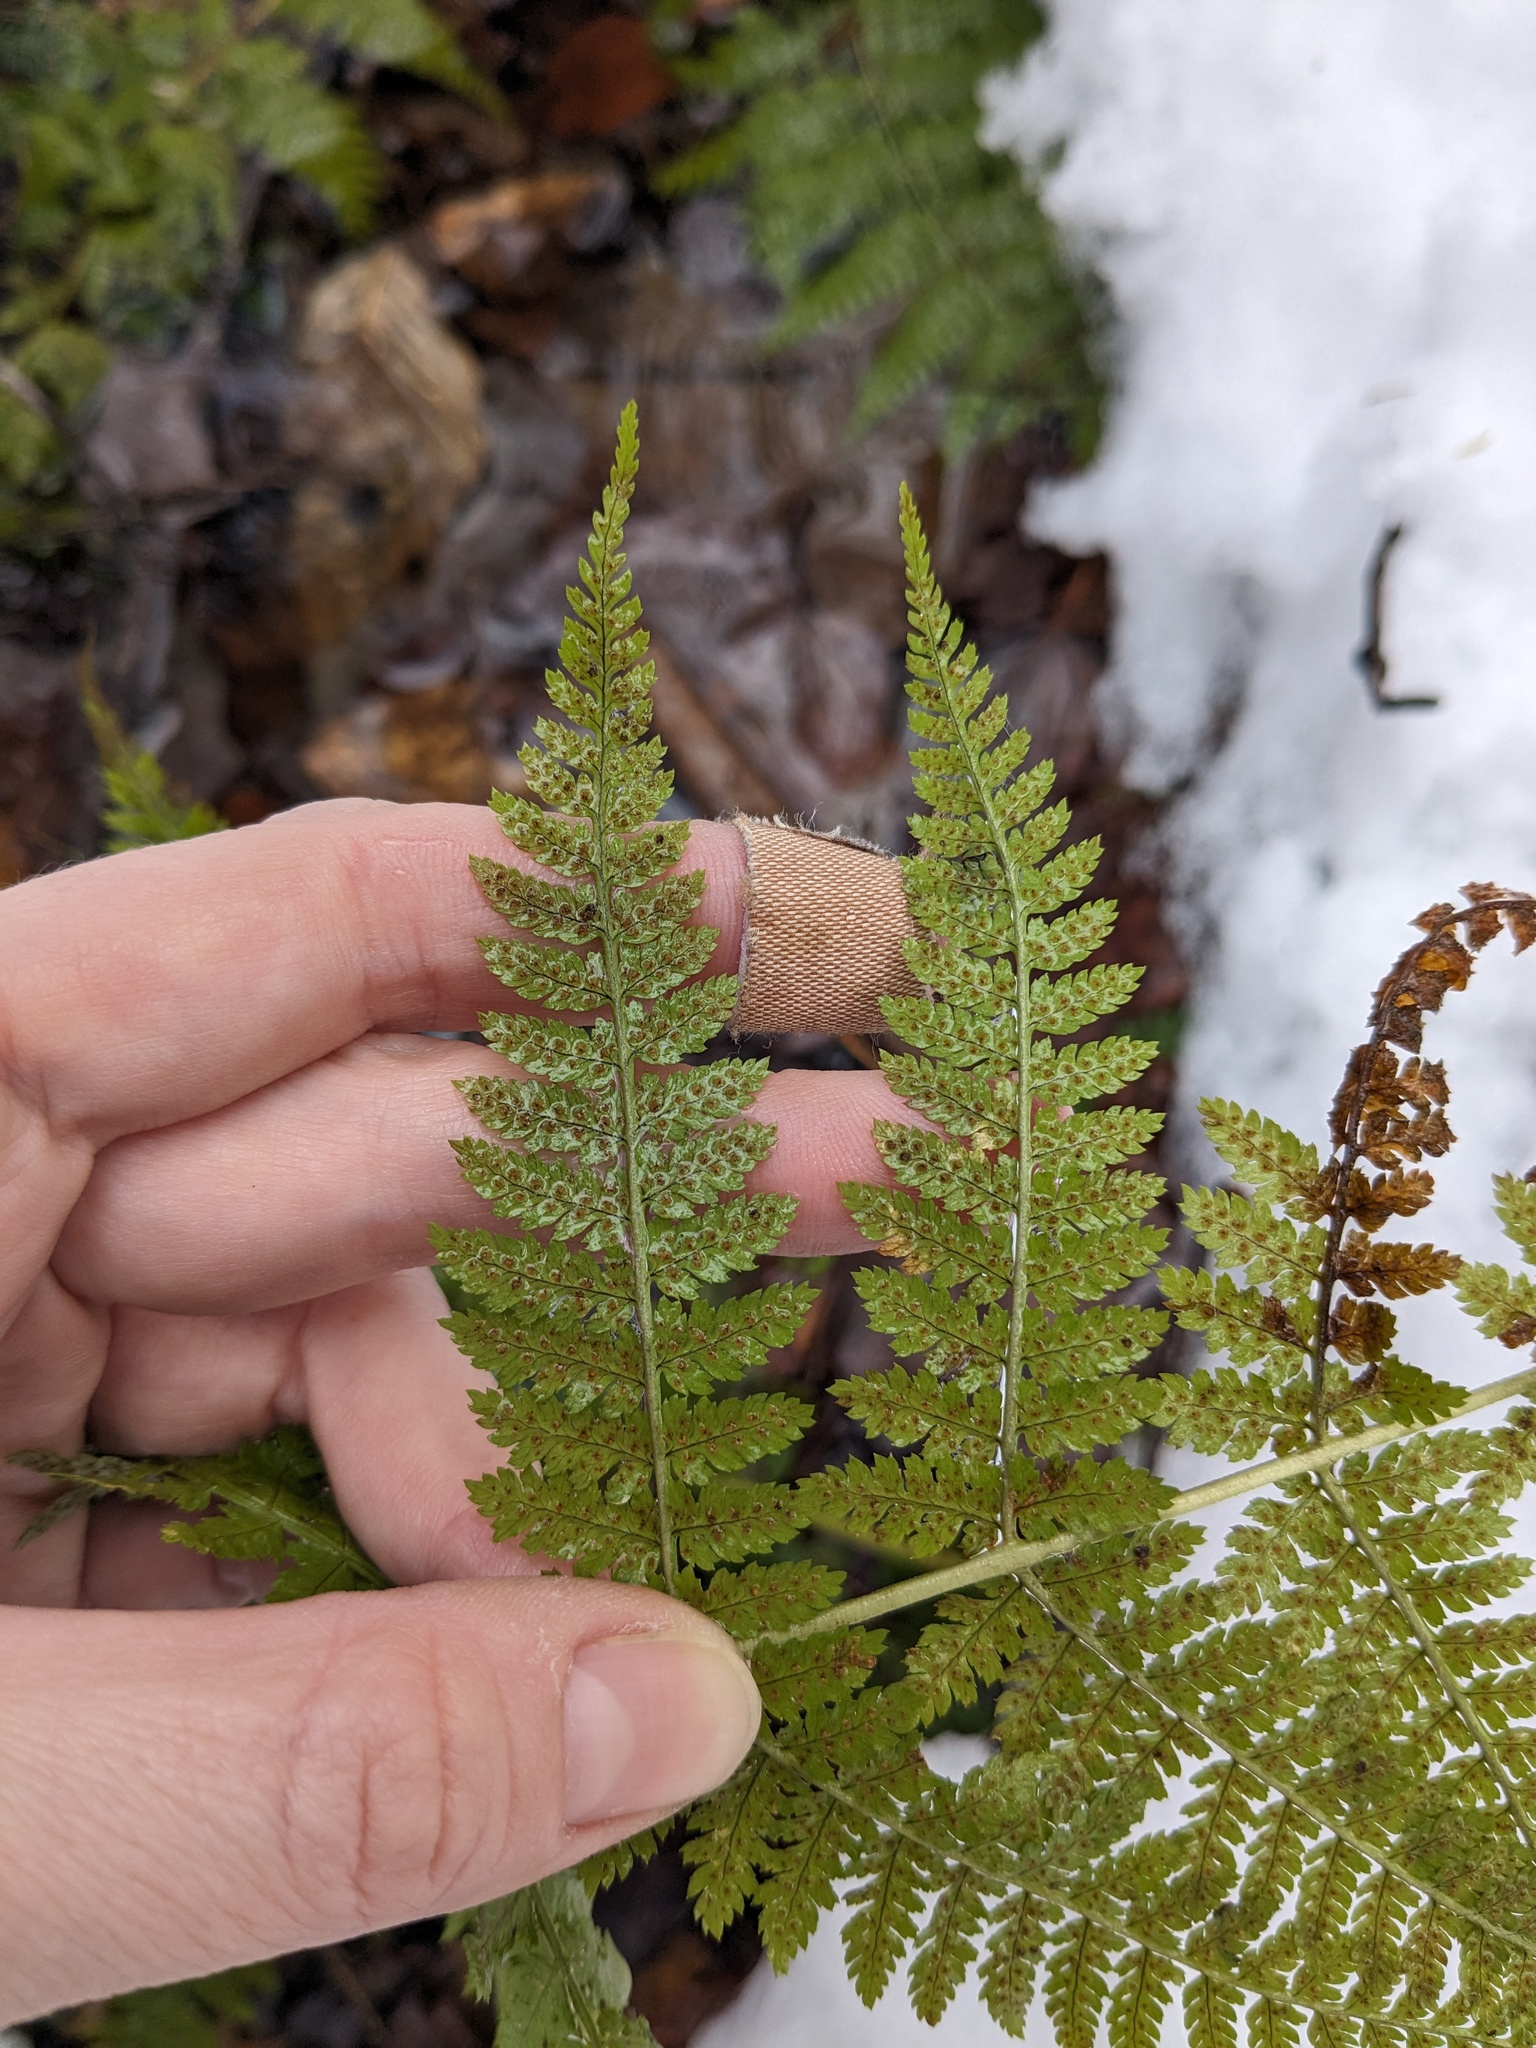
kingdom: Plantae
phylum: Tracheophyta
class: Polypodiopsida
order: Polypodiales
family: Dryopteridaceae
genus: Dryopteris
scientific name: Dryopteris intermedia
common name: Evergreen wood fern
